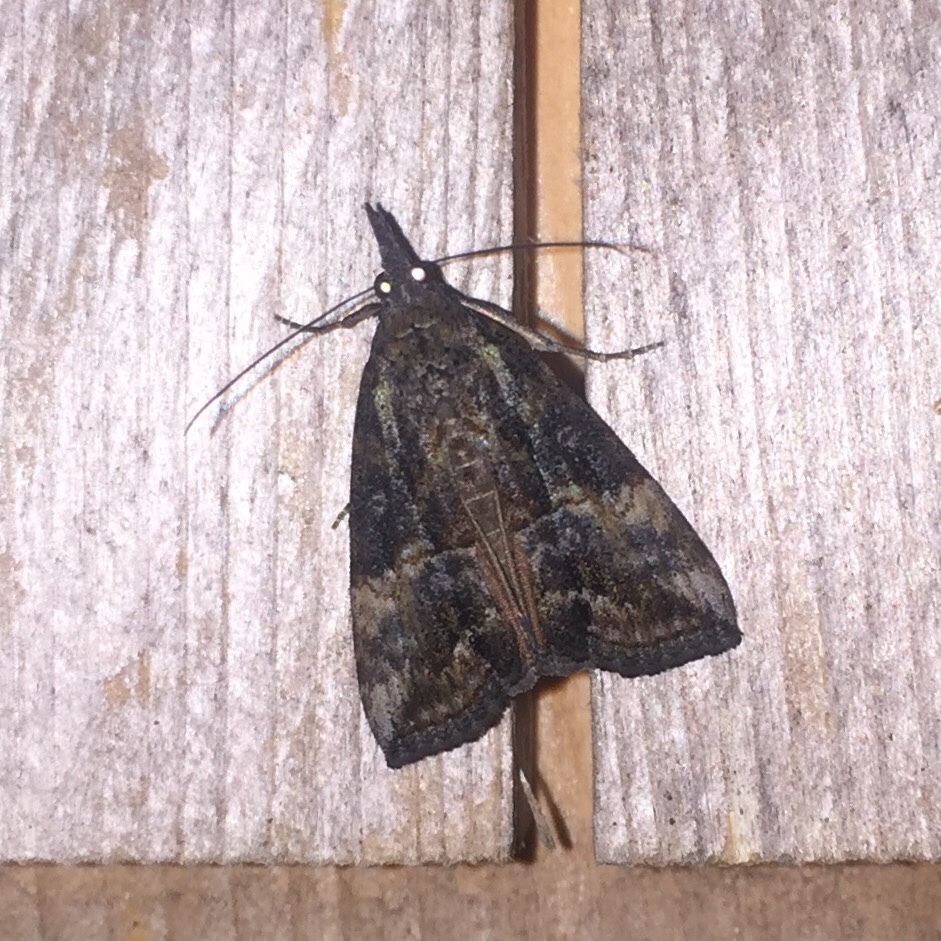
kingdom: Animalia
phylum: Arthropoda
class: Insecta
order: Lepidoptera
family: Erebidae
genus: Hypena
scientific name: Hypena scabra
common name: Green cloverworm
